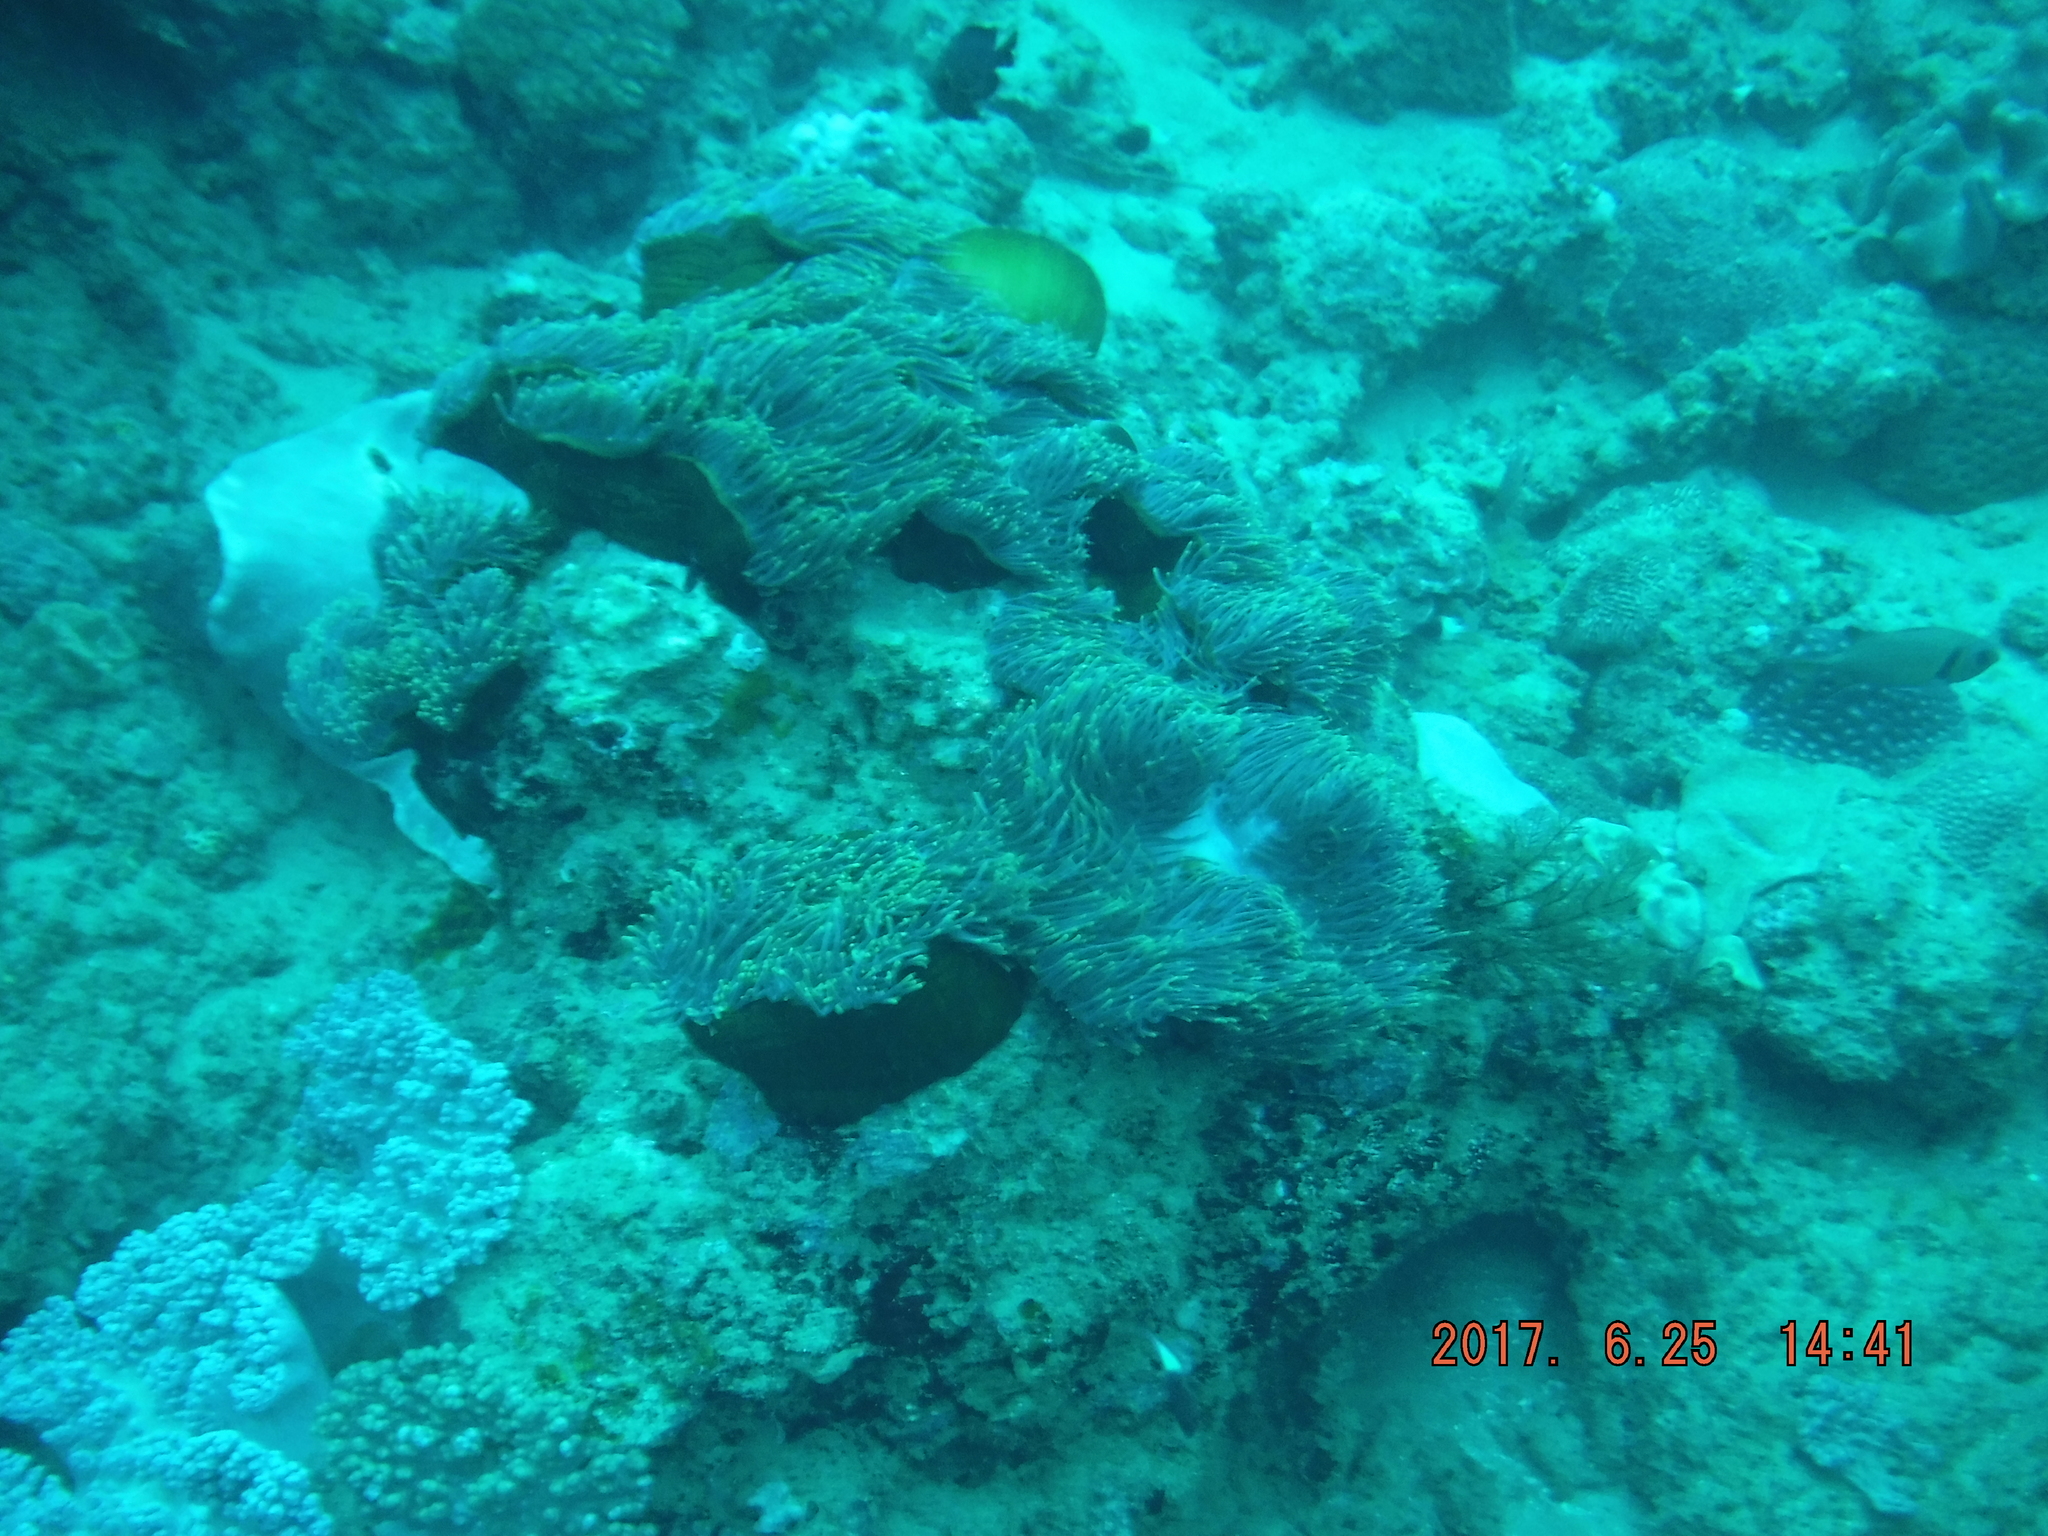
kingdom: Animalia
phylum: Cnidaria
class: Anthozoa
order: Actiniaria
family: Stichodactylidae
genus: Radianthus
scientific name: Radianthus magnifica
